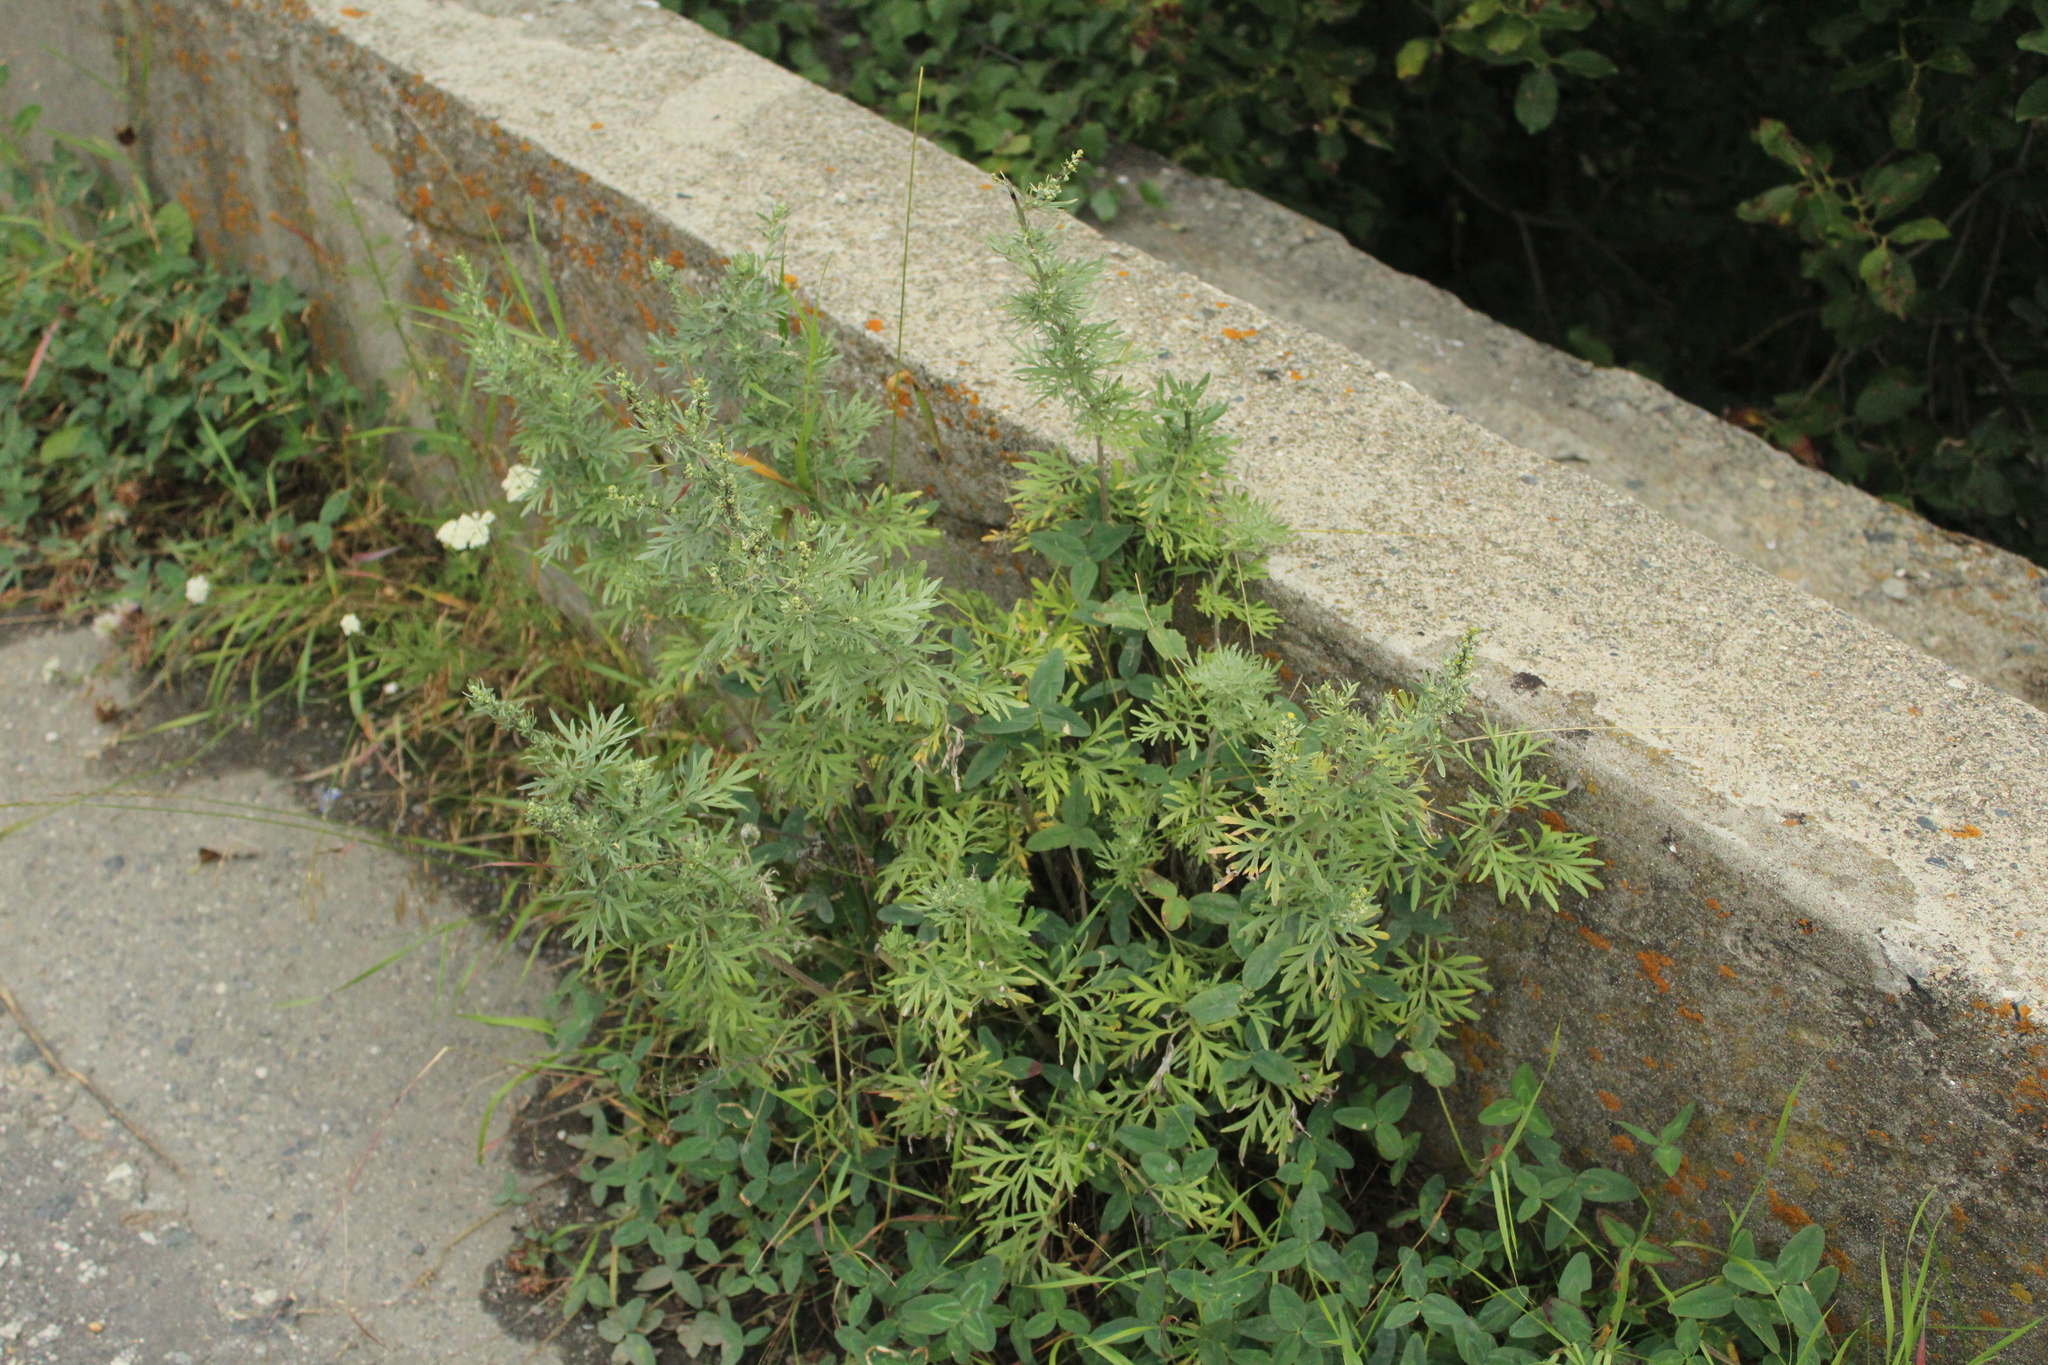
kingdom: Plantae
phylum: Tracheophyta
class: Magnoliopsida
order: Asterales
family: Asteraceae
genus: Artemisia
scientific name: Artemisia absinthium
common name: Wormwood
